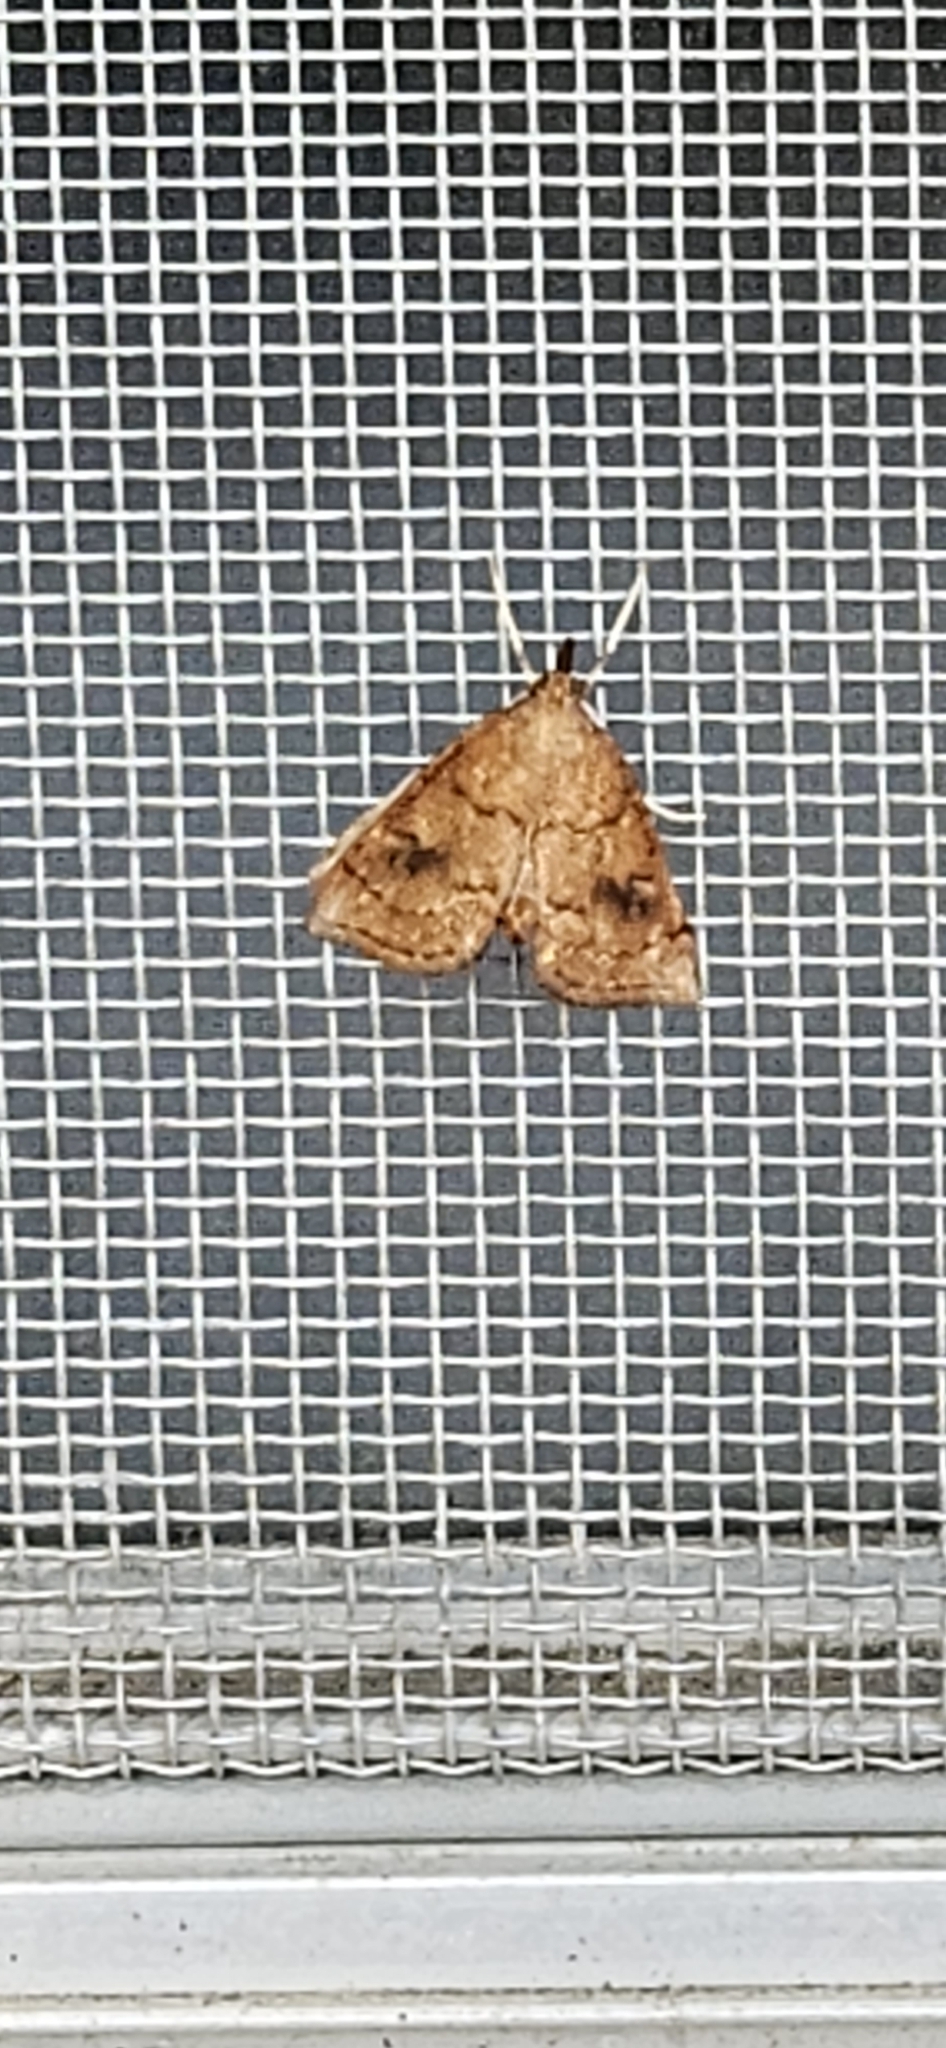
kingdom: Animalia
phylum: Arthropoda
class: Insecta
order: Lepidoptera
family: Crambidae
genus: Fumibotys
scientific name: Fumibotys fumalis
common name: Mint root borer moth
